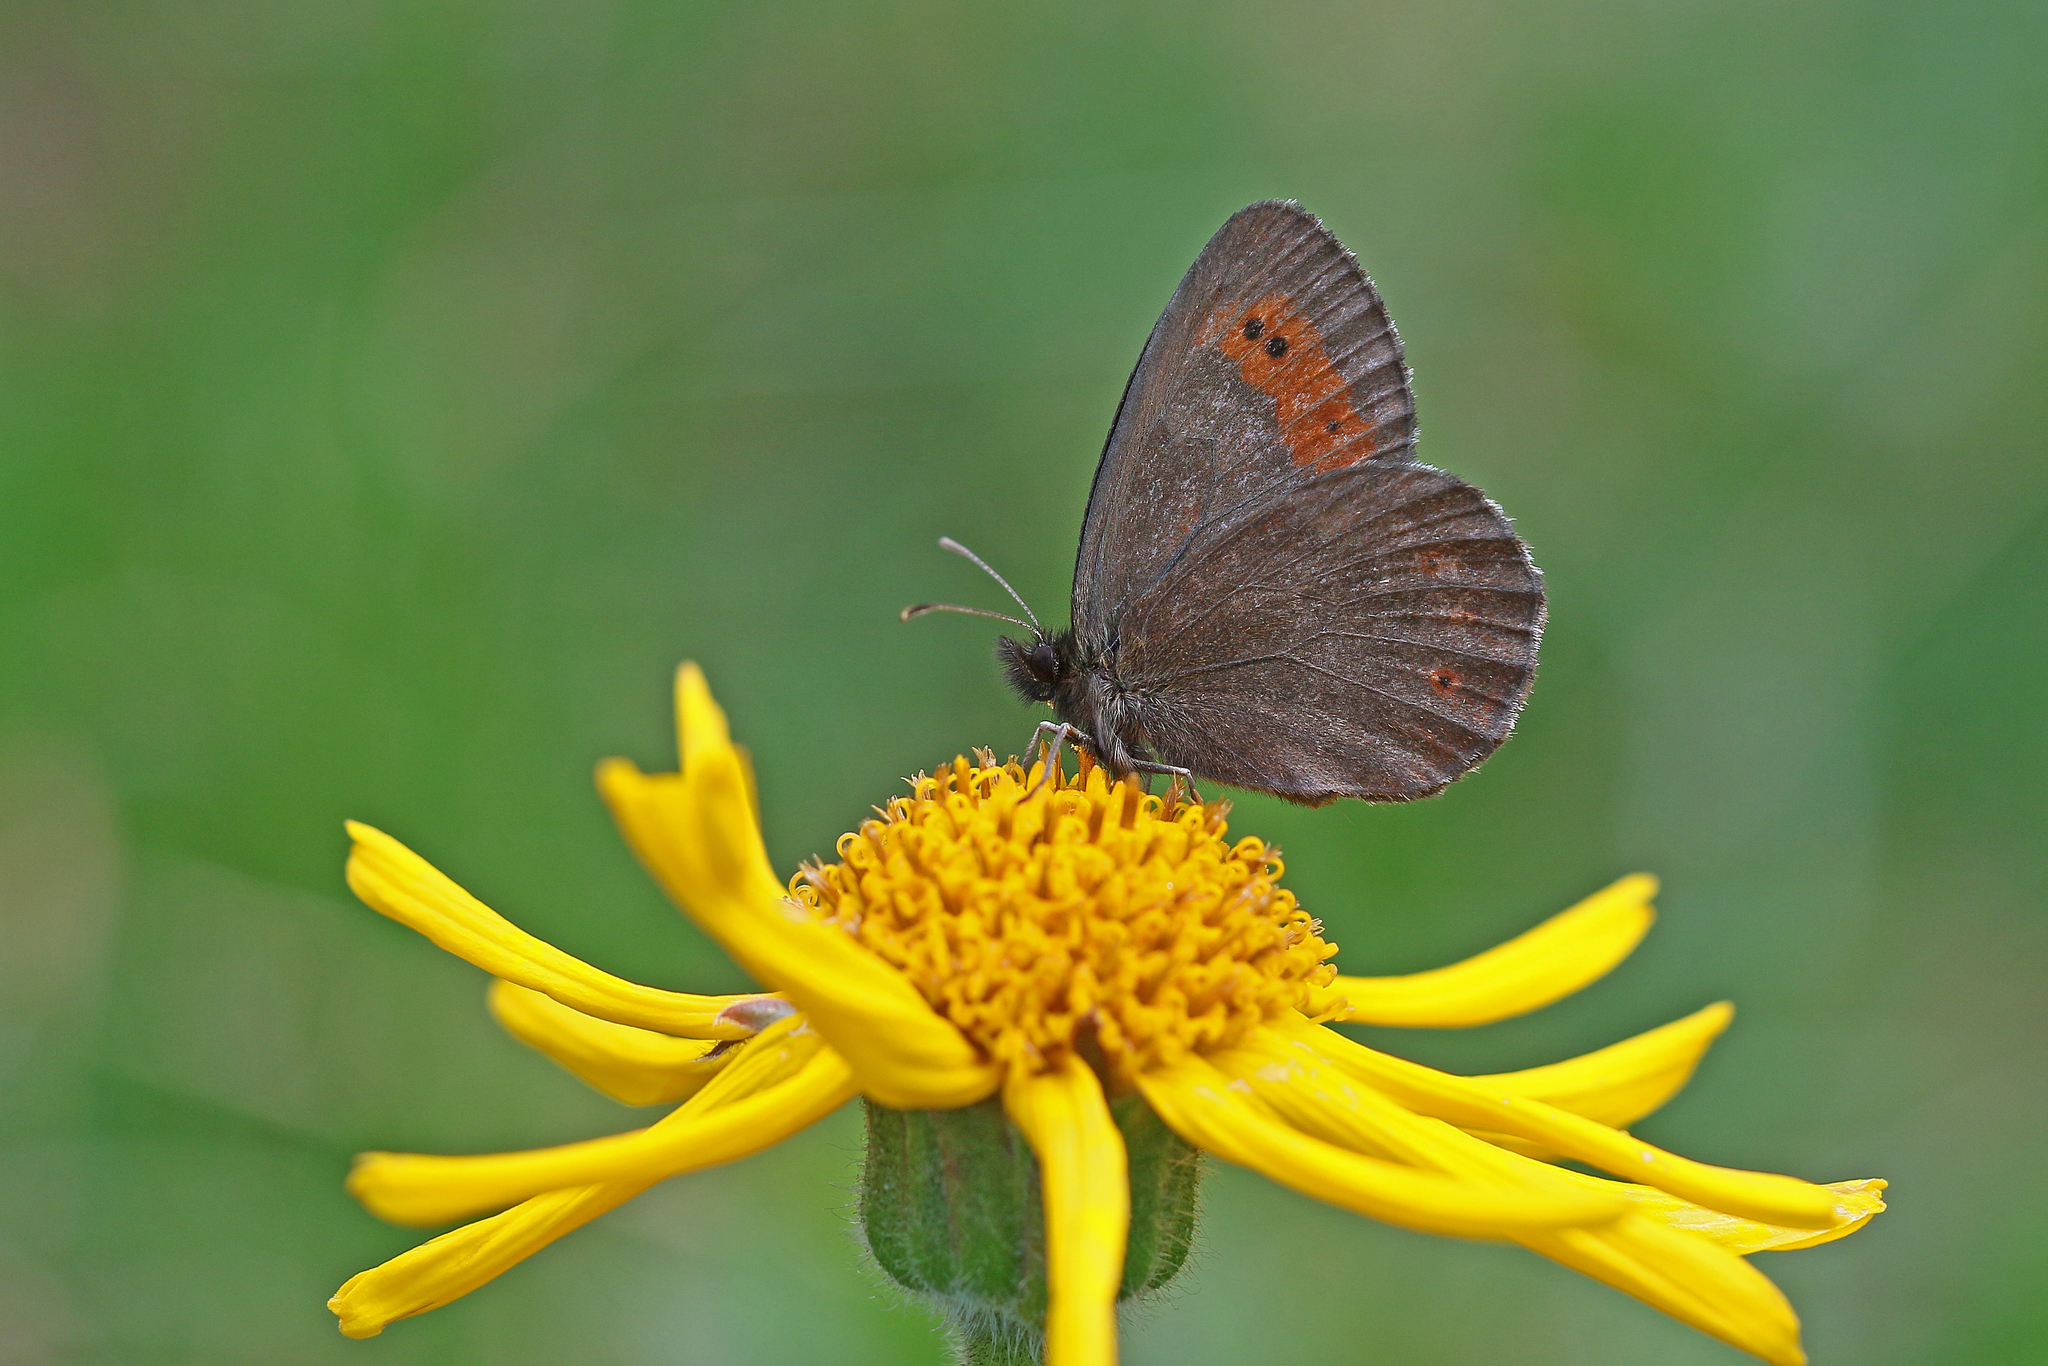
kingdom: Animalia
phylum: Arthropoda
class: Insecta
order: Lepidoptera
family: Nymphalidae
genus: Erebia
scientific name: Erebia euryale
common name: Large ringlet
